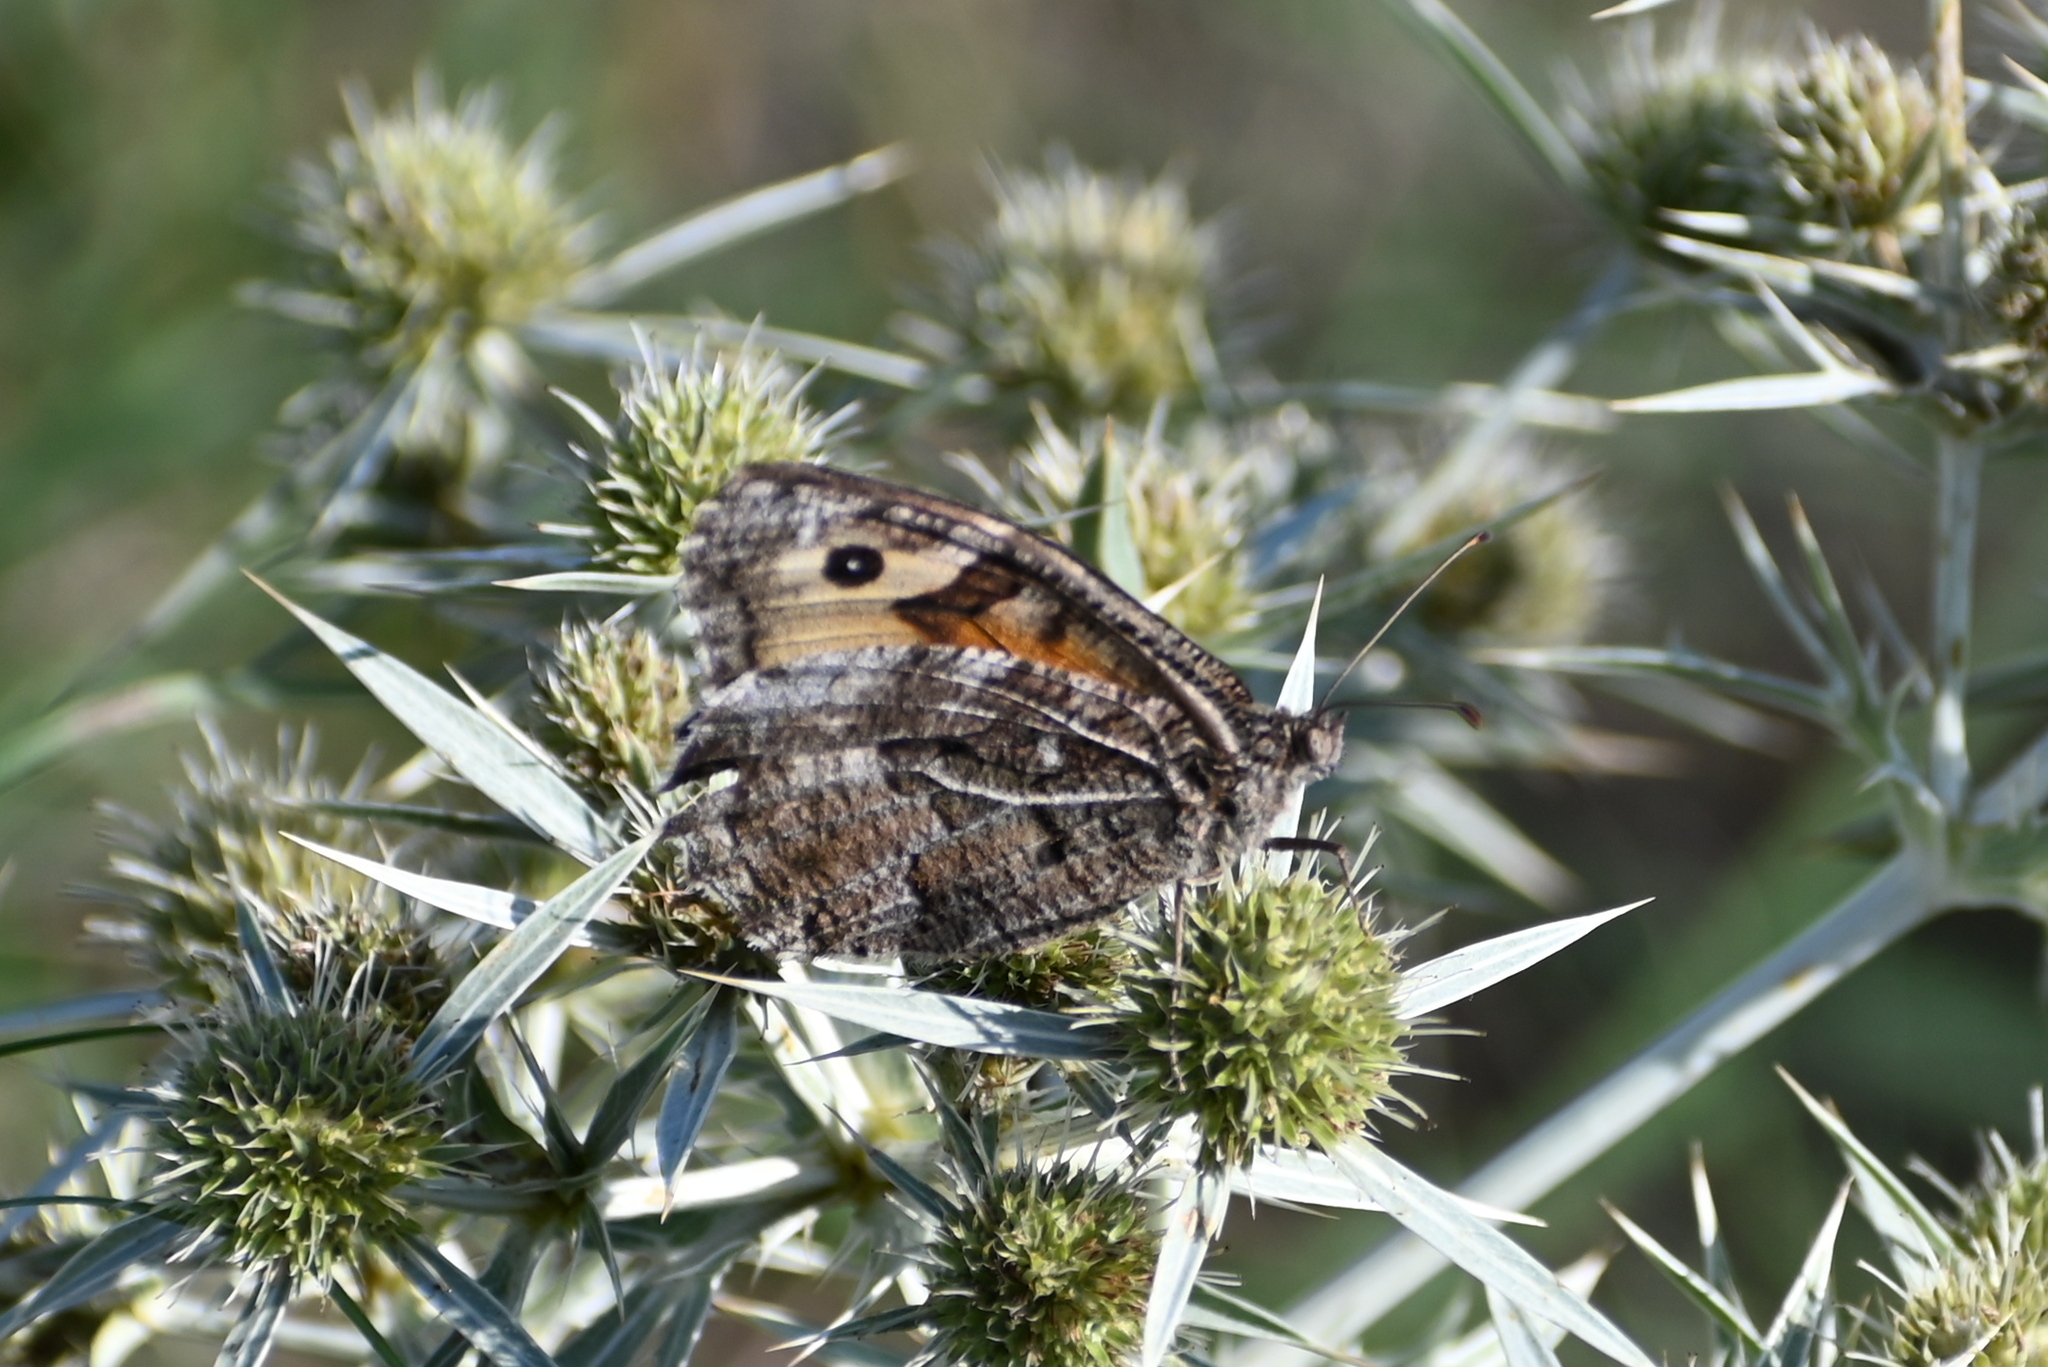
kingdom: Animalia
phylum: Arthropoda
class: Insecta
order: Lepidoptera
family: Nymphalidae
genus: Hipparchia
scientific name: Hipparchia semele
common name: Grayling
